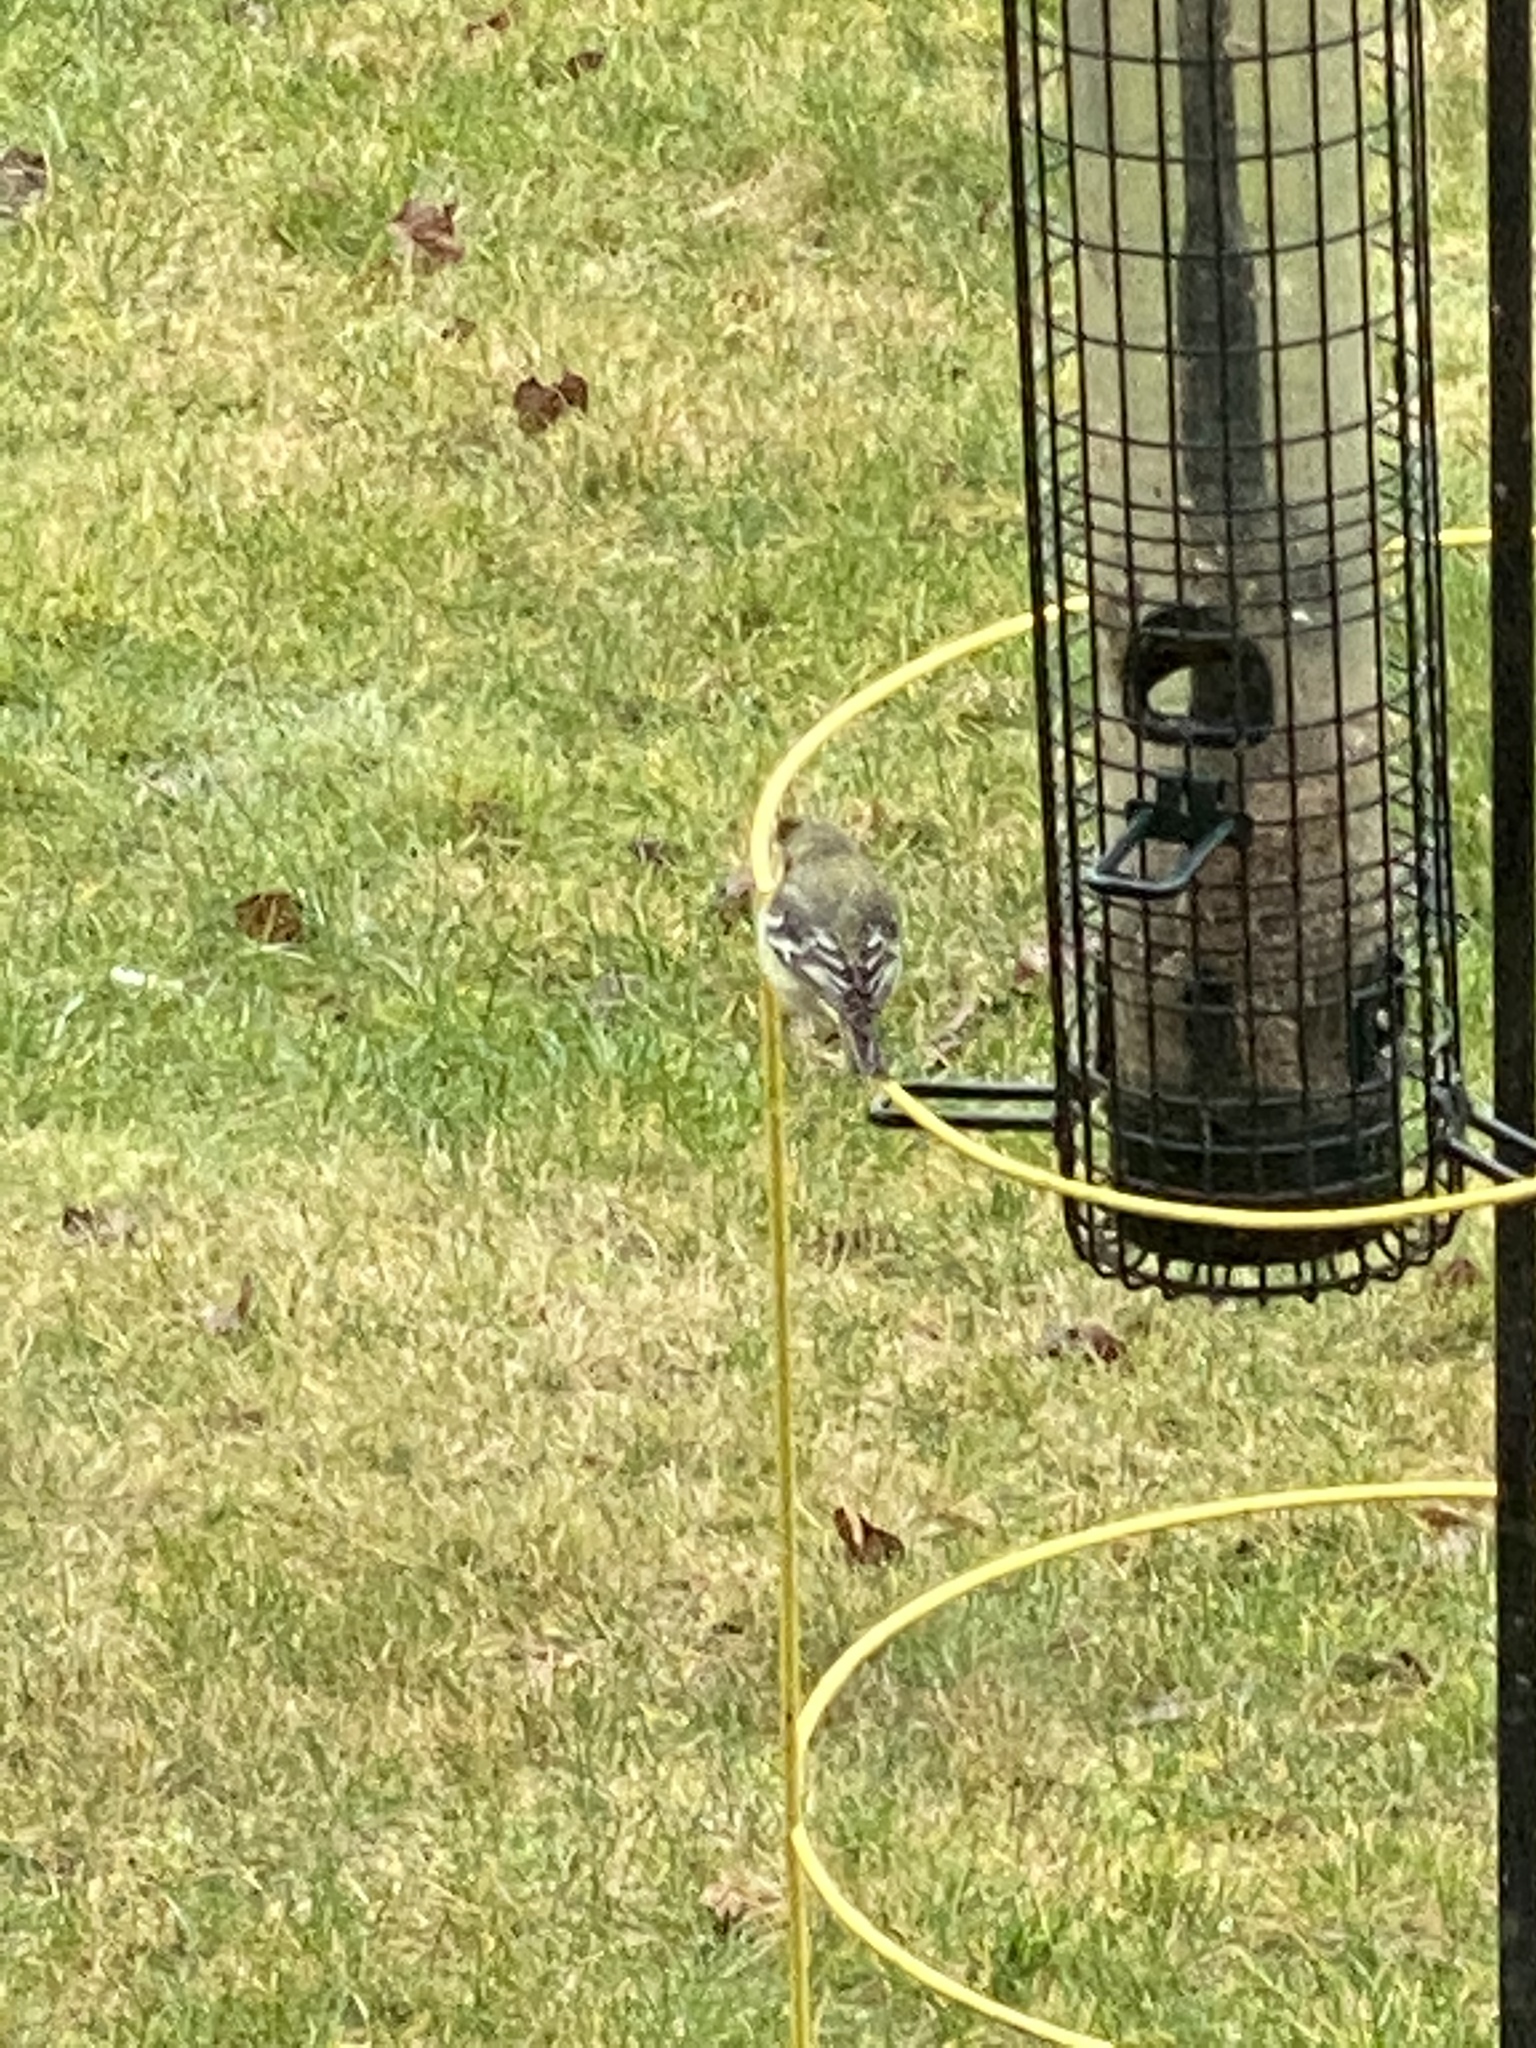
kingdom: Animalia
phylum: Chordata
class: Aves
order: Passeriformes
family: Fringillidae
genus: Spinus
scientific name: Spinus psaltria
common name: Lesser goldfinch
